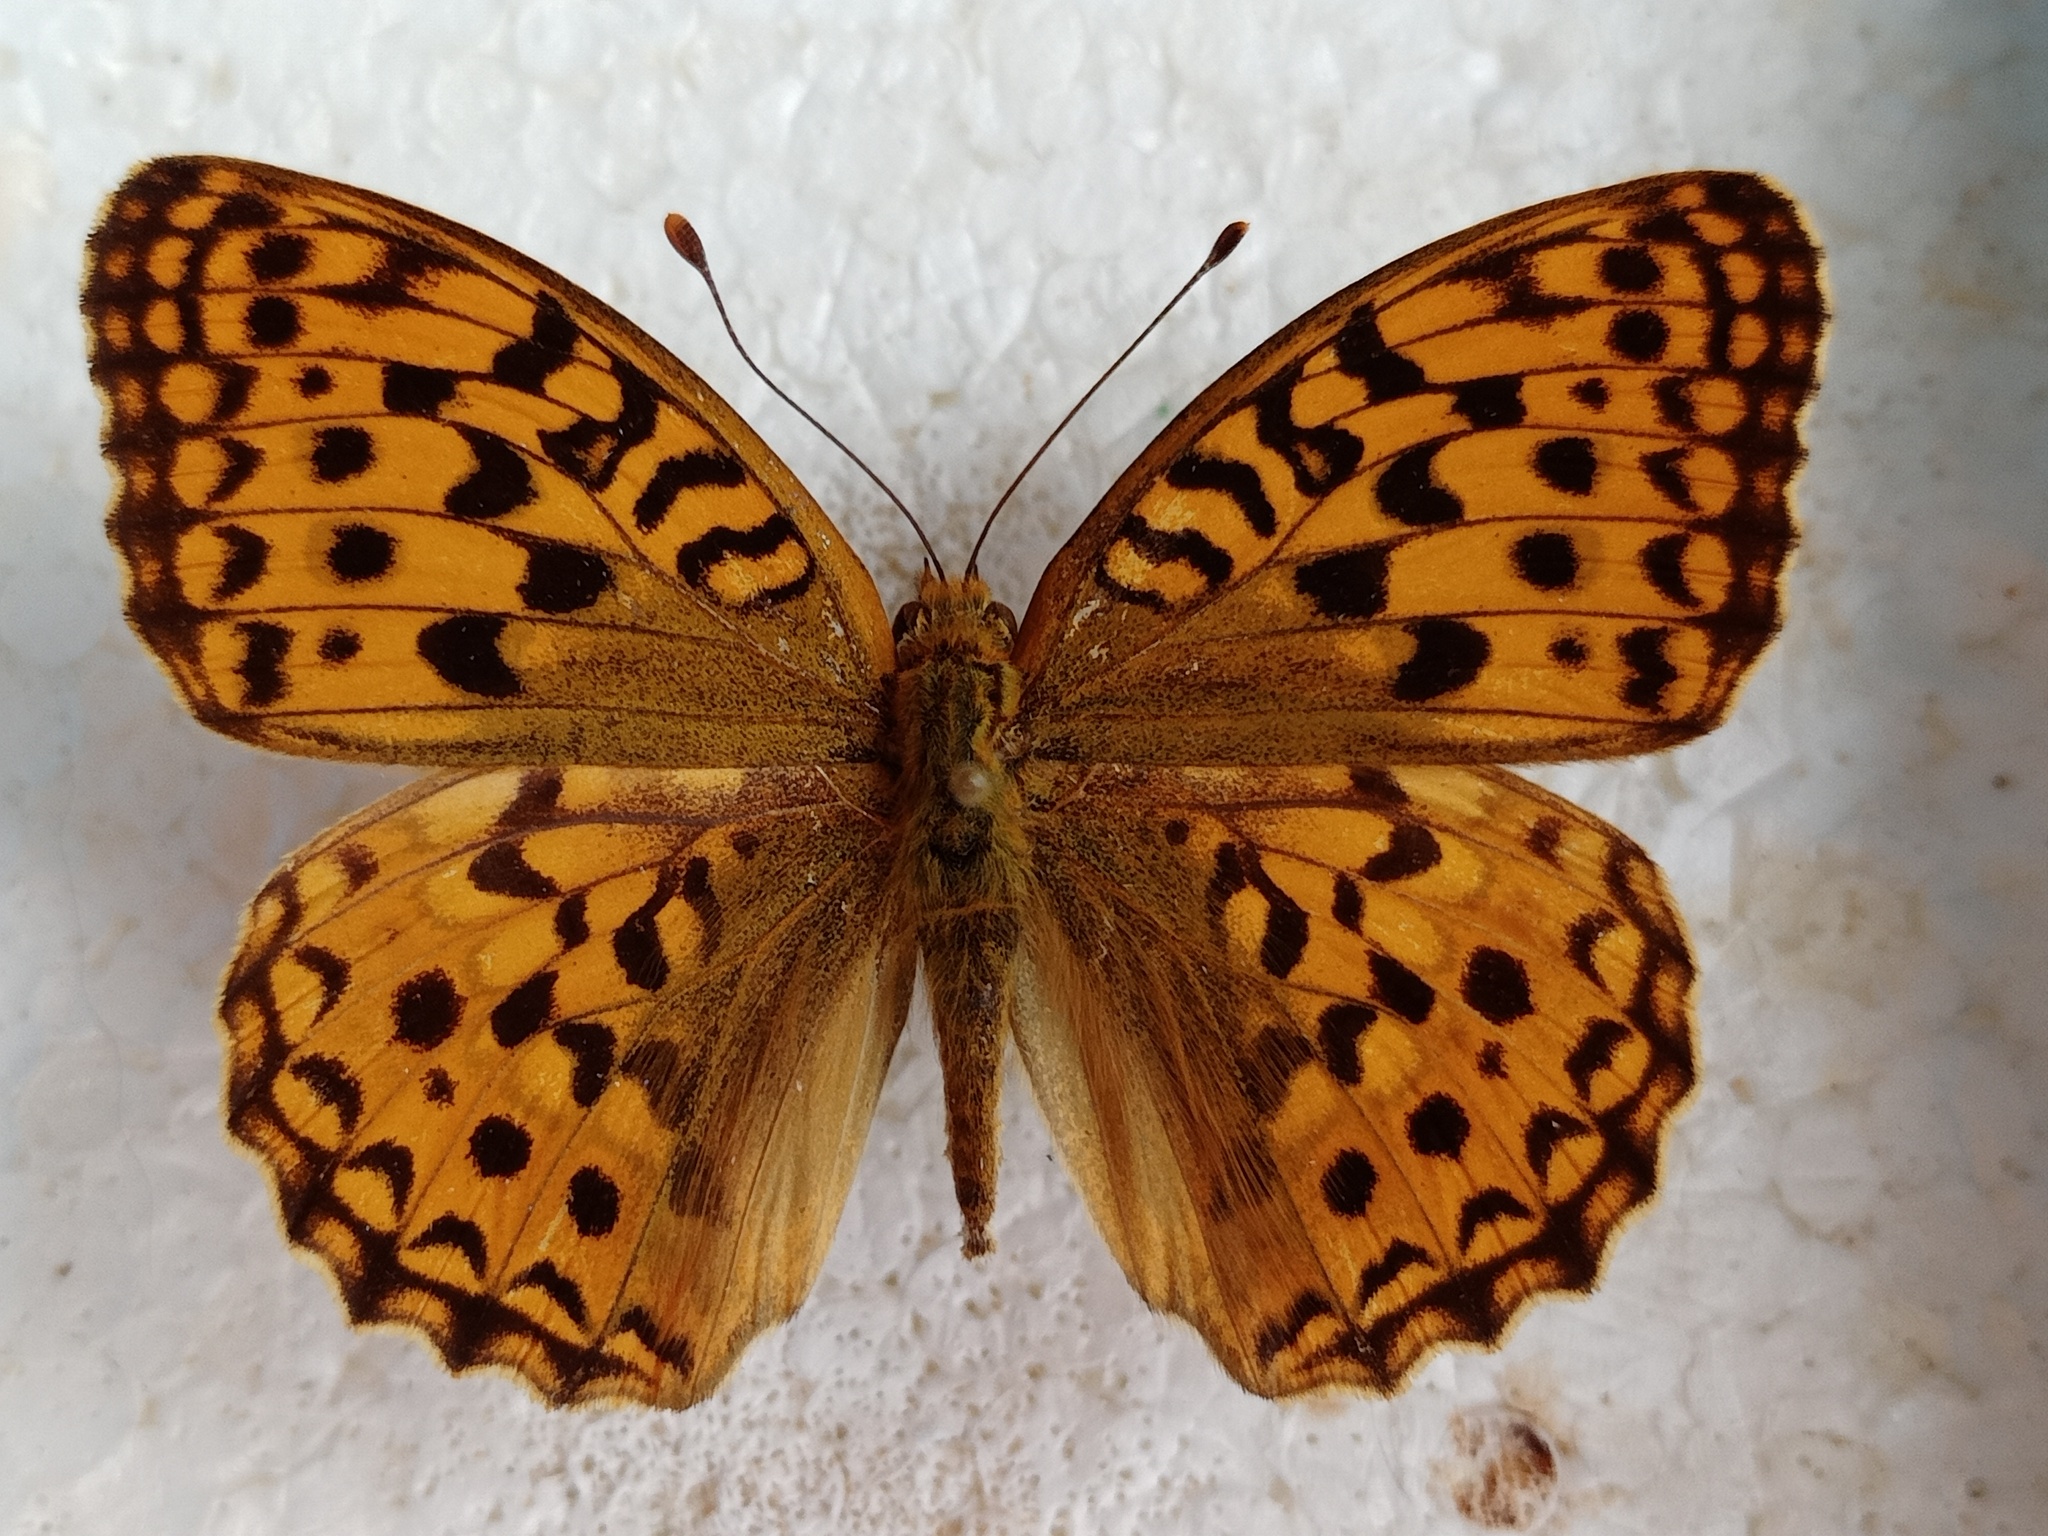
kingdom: Animalia
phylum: Arthropoda
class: Insecta
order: Lepidoptera
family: Nymphalidae
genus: Fabriciana
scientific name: Fabriciana adippe
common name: High brown fritillary
